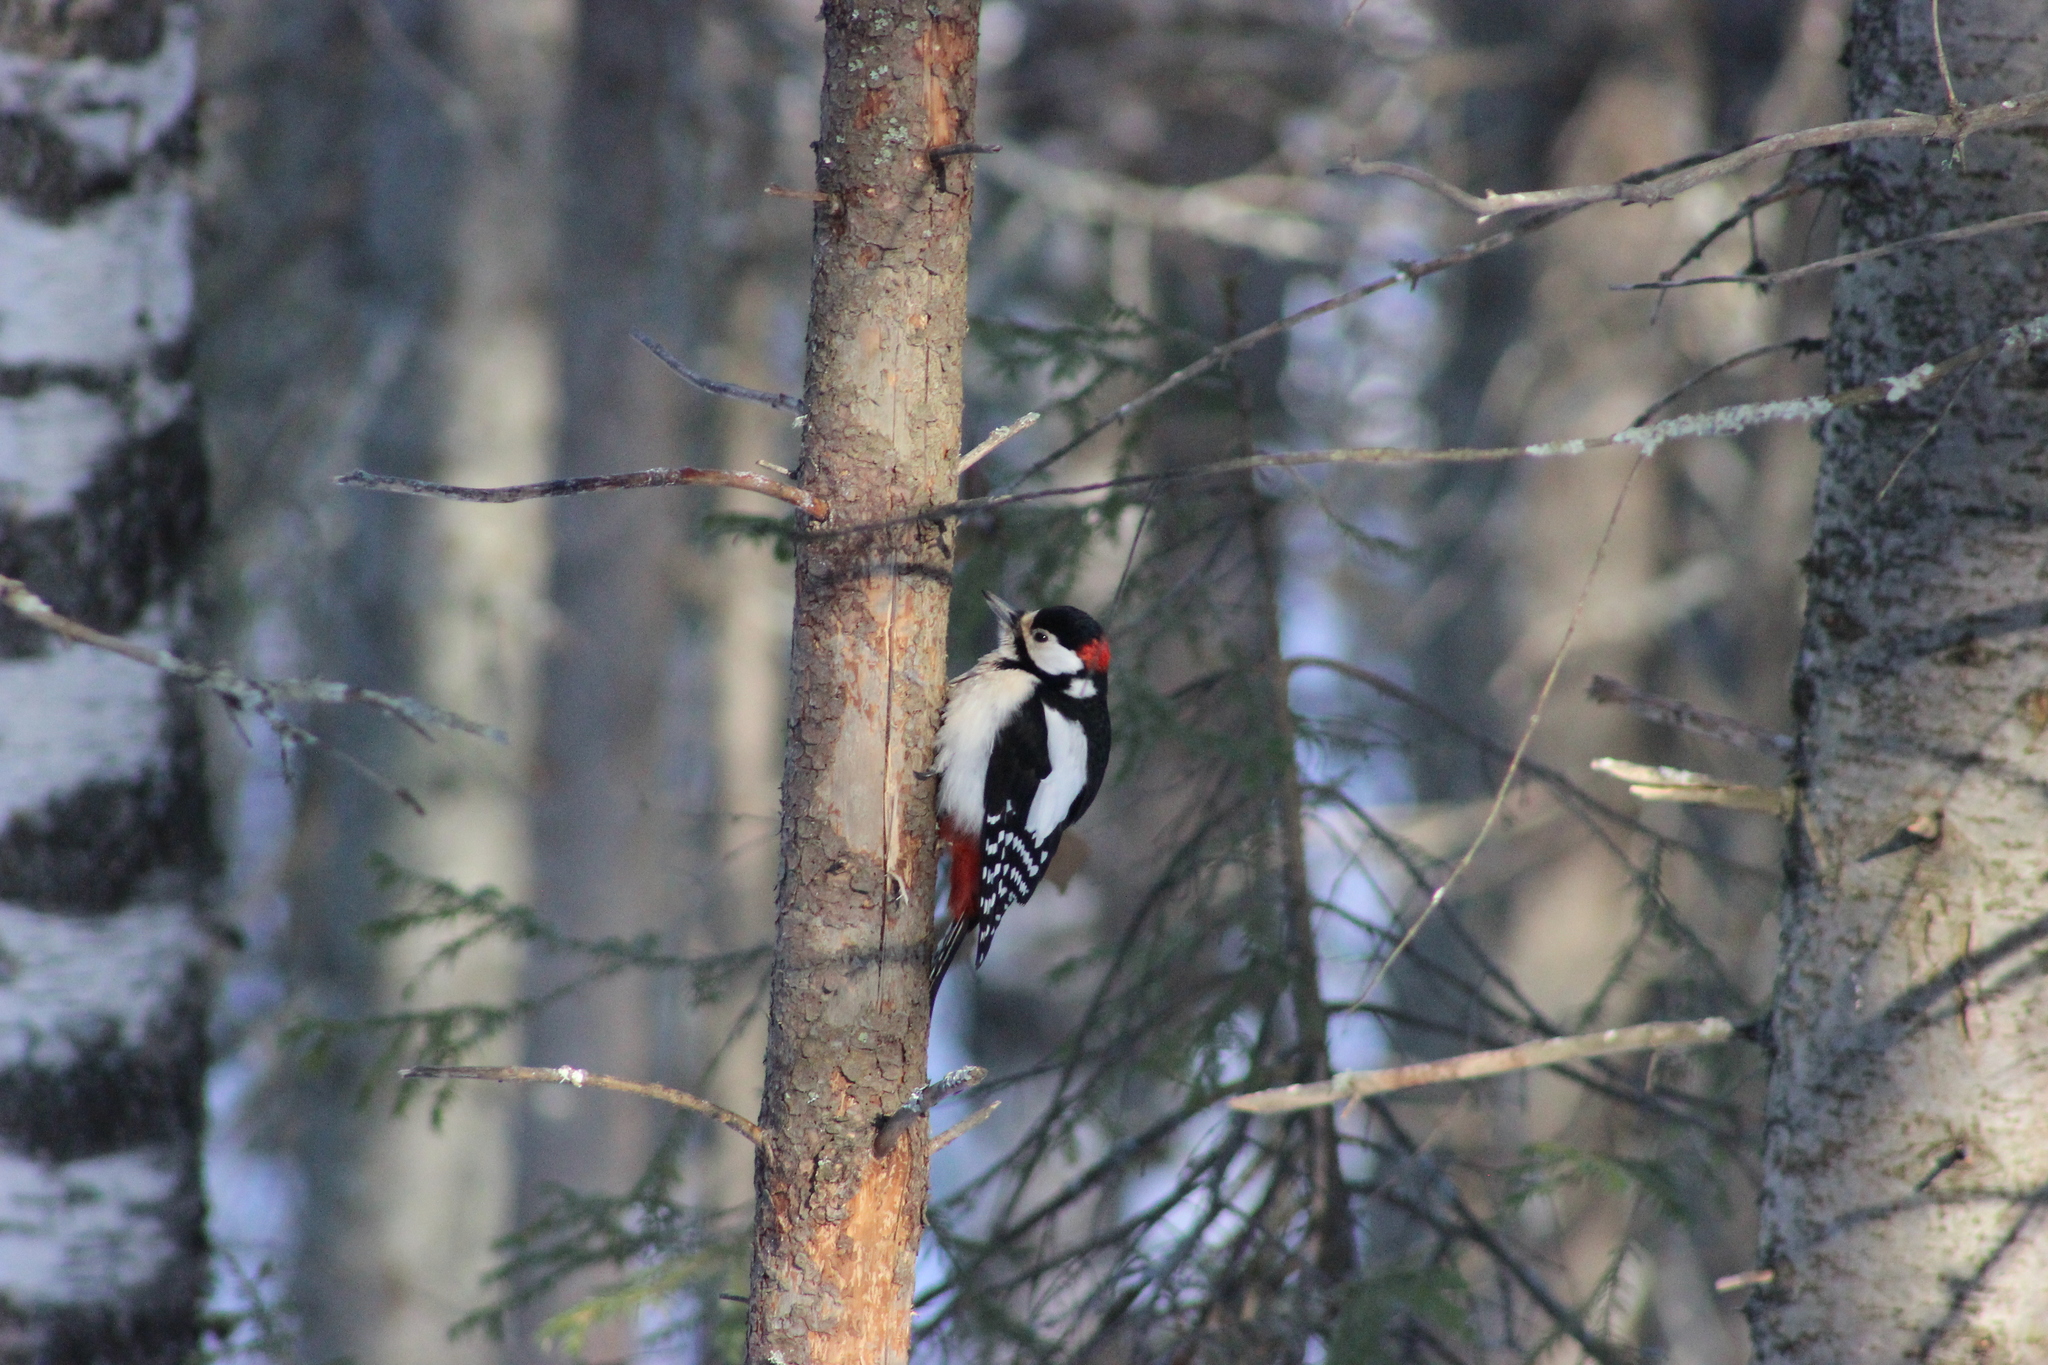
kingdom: Animalia
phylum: Chordata
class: Aves
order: Piciformes
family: Picidae
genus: Dendrocopos
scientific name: Dendrocopos major
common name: Great spotted woodpecker
